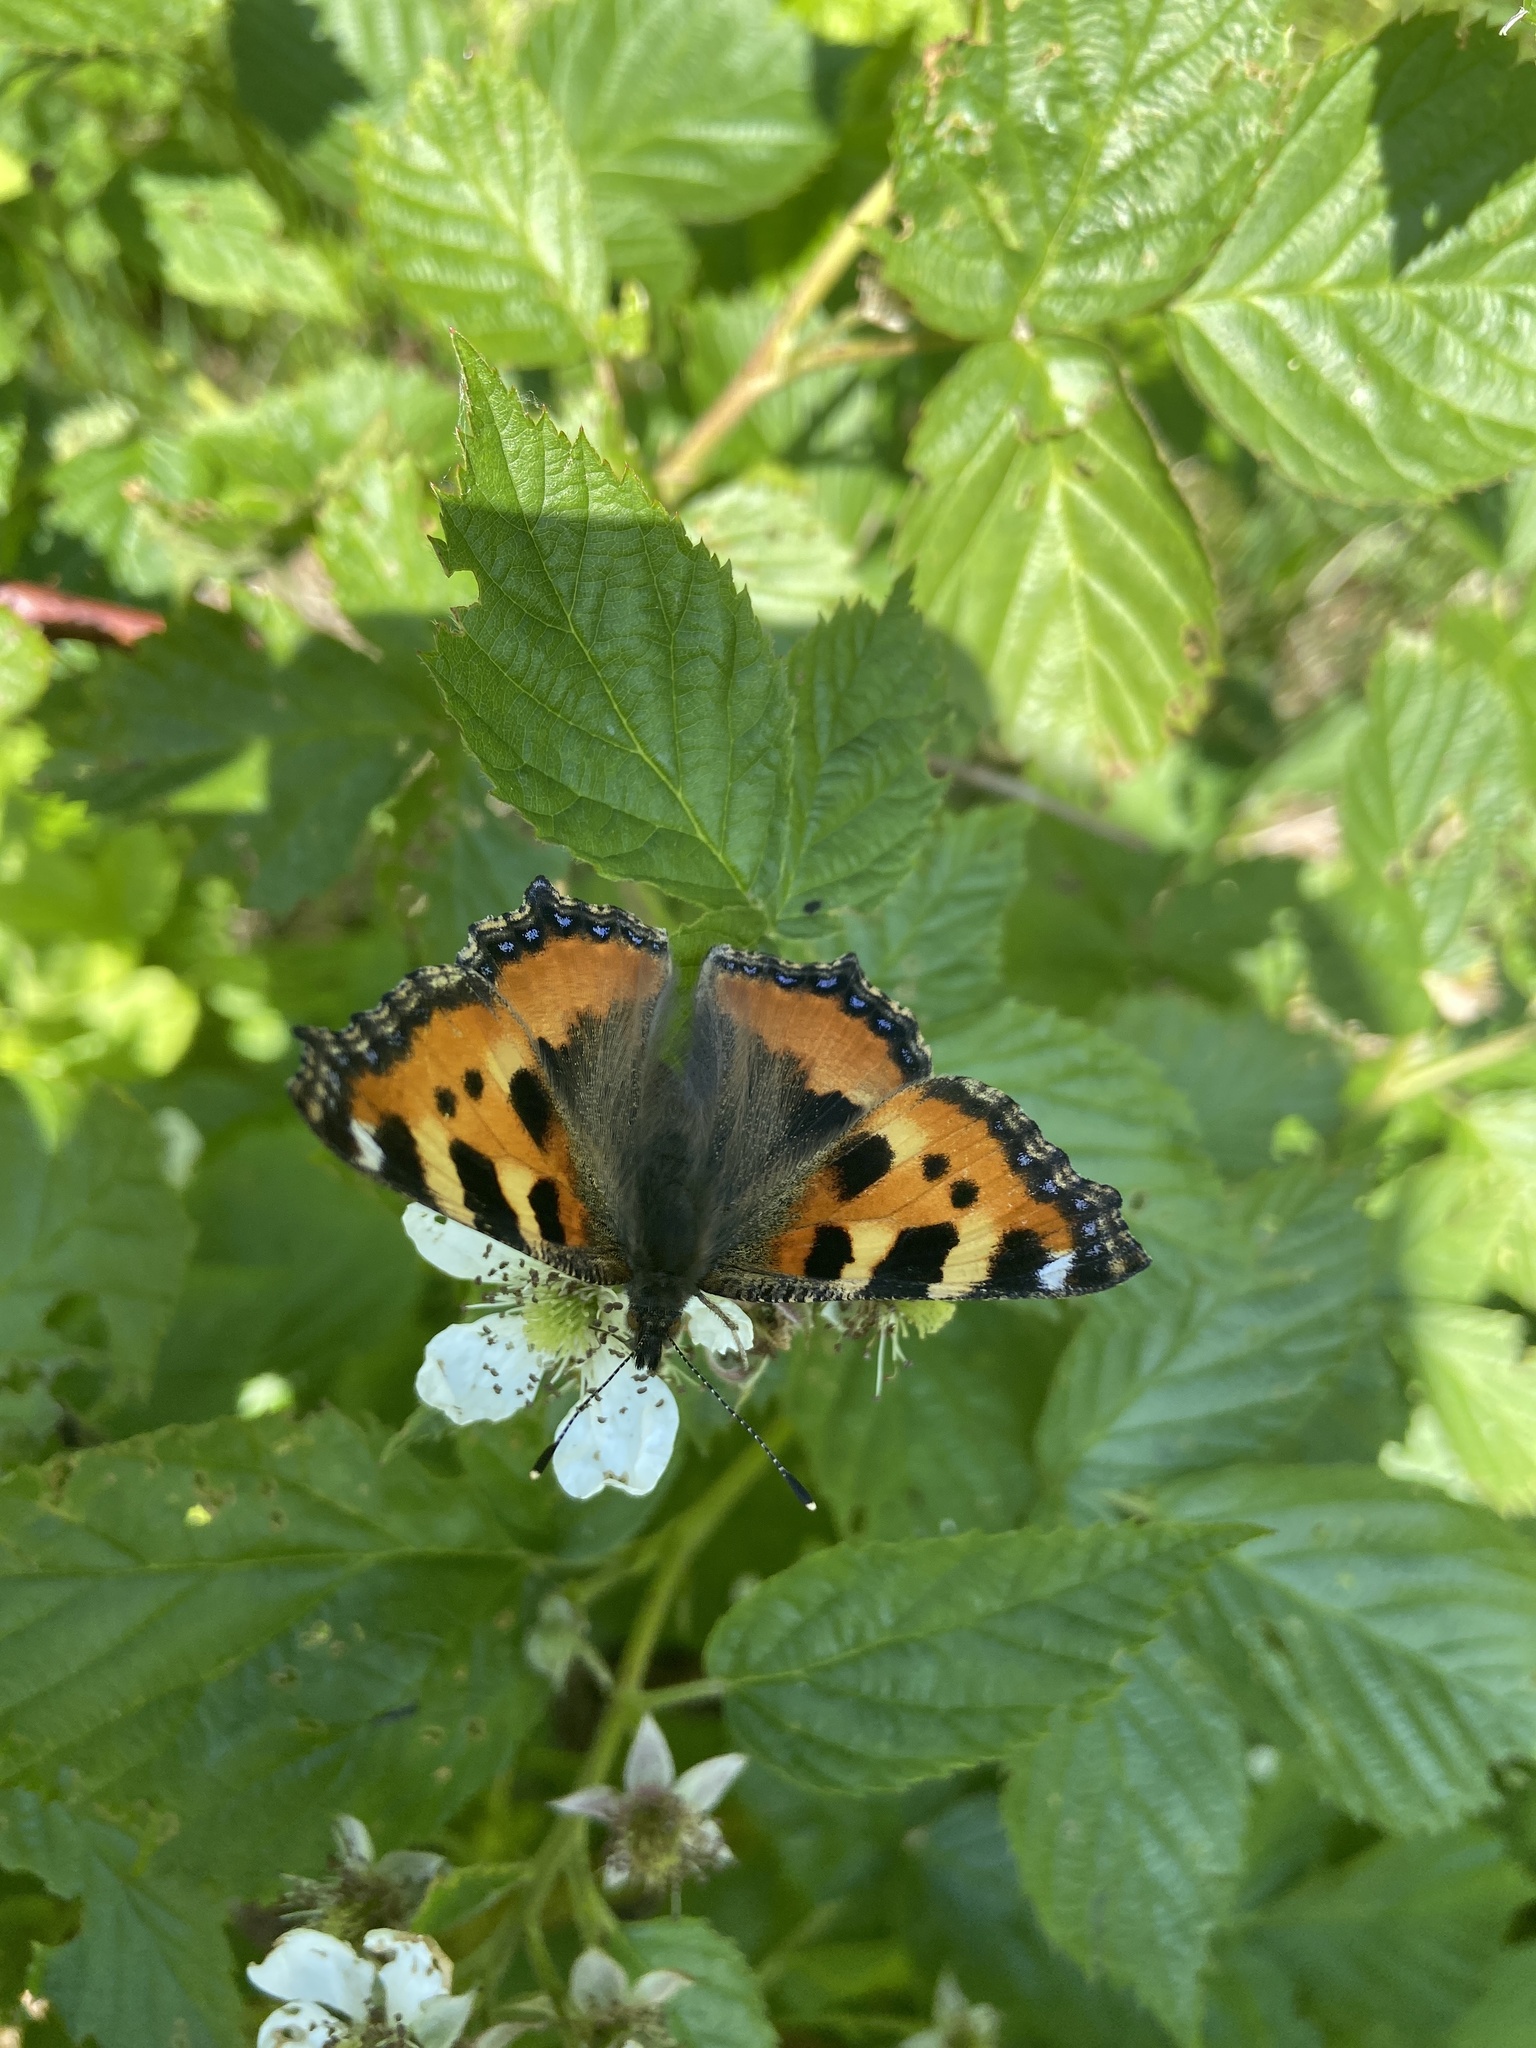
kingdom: Animalia
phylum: Arthropoda
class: Insecta
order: Lepidoptera
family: Nymphalidae
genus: Aglais
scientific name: Aglais urticae
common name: Small tortoiseshell
